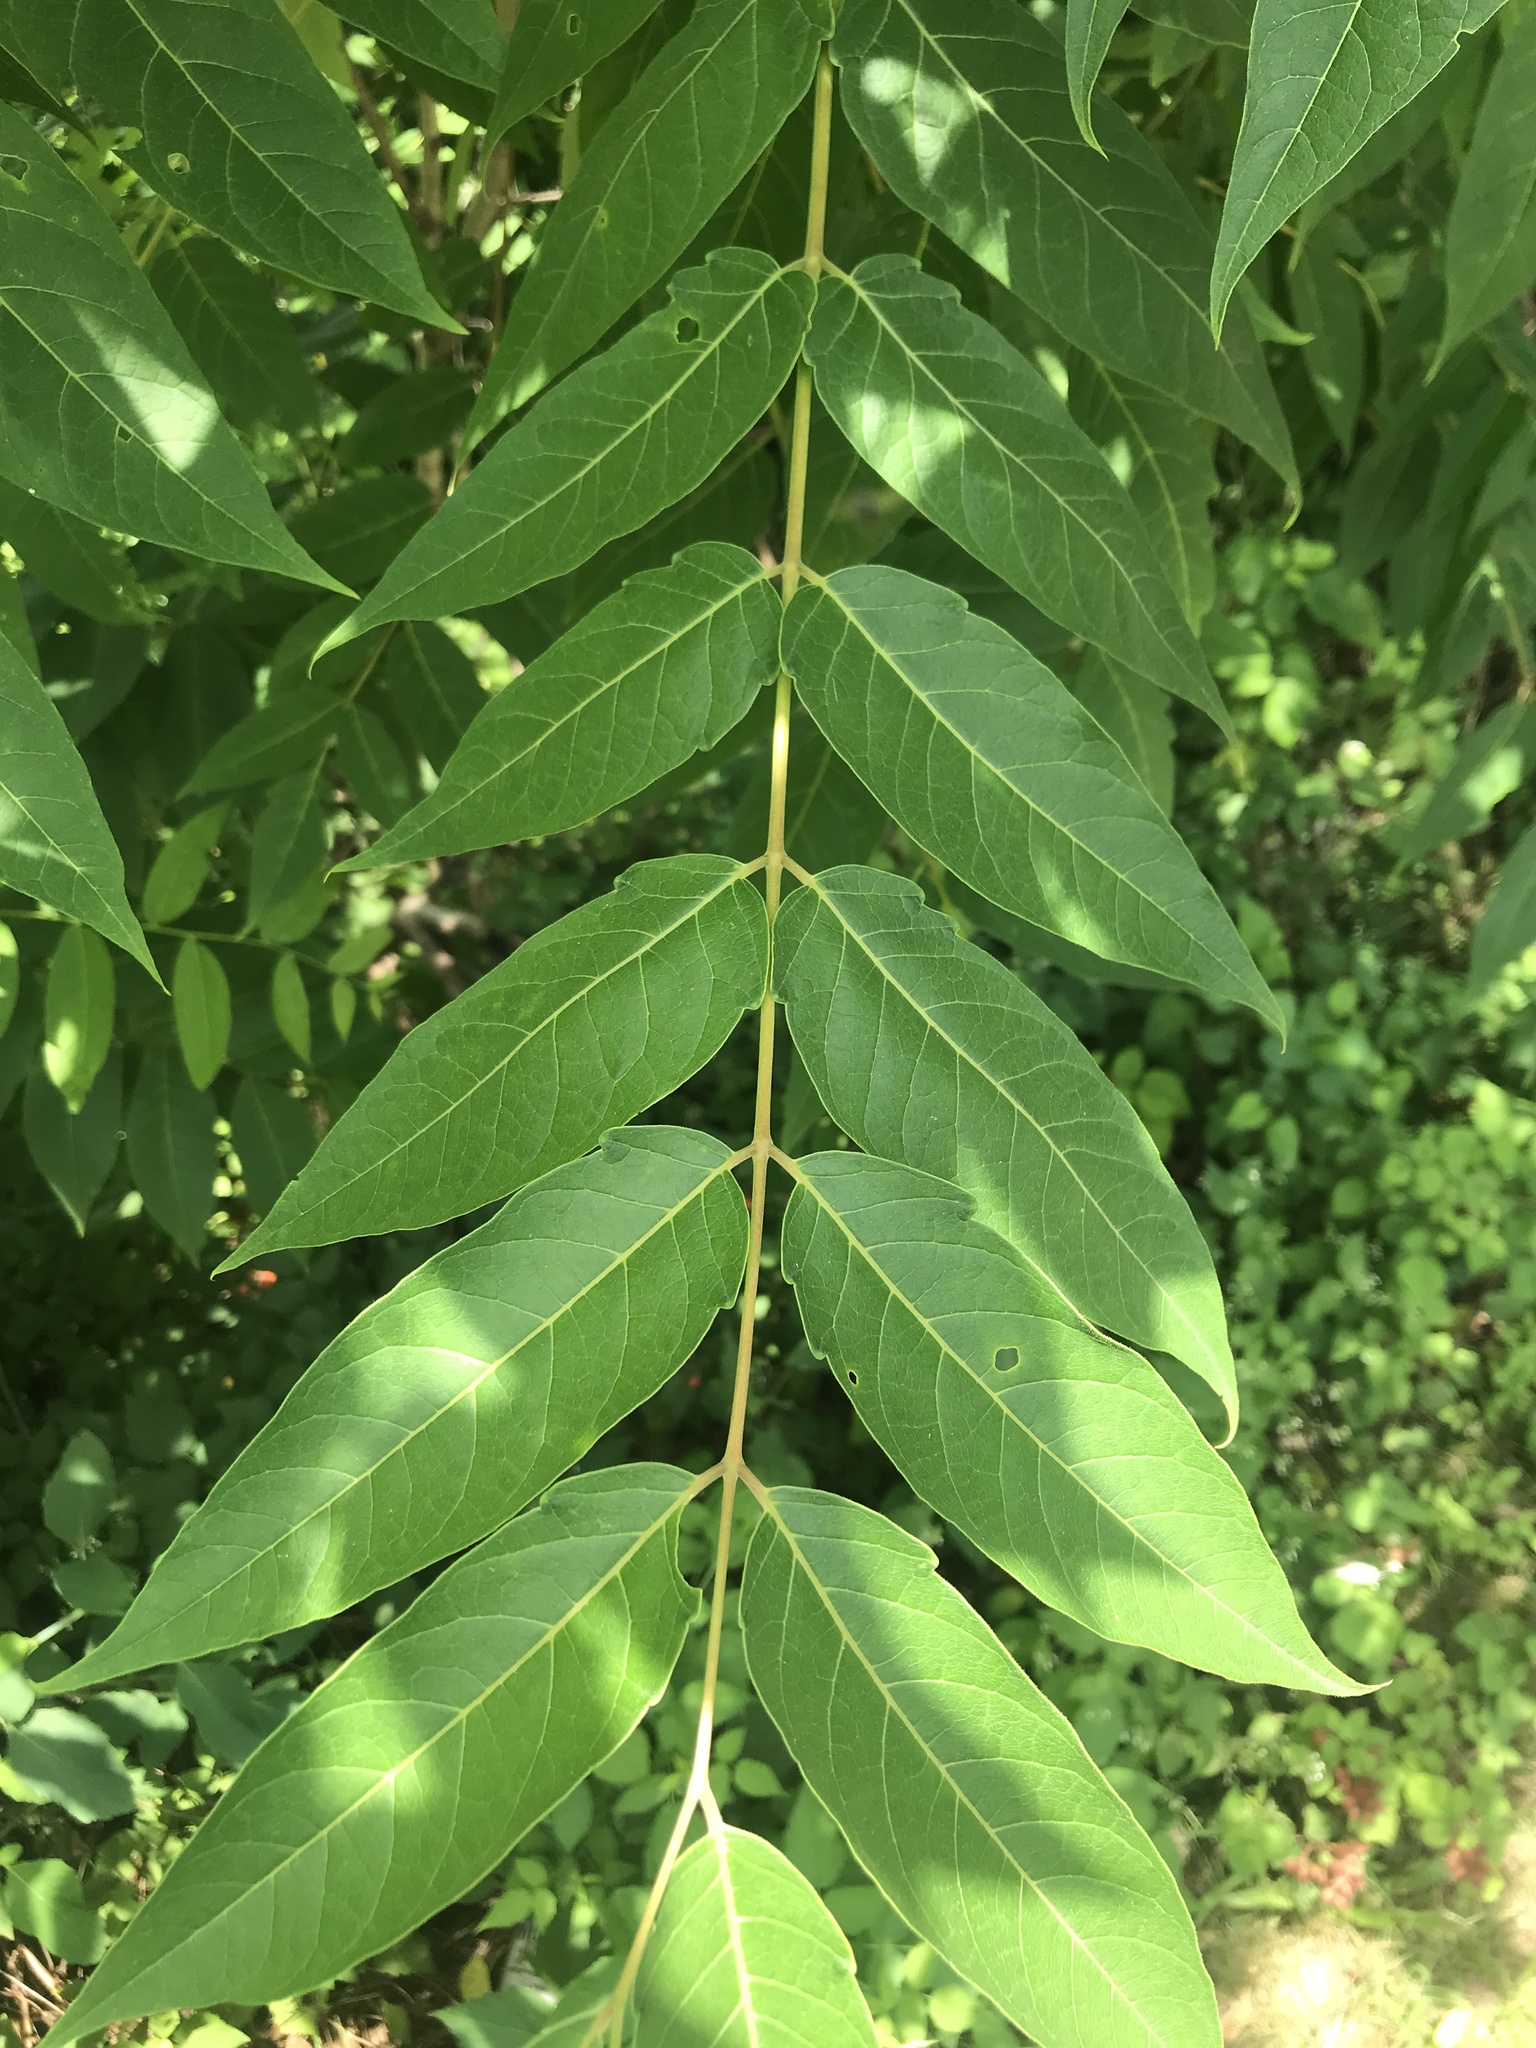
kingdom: Plantae
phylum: Tracheophyta
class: Magnoliopsida
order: Sapindales
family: Simaroubaceae
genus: Ailanthus
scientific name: Ailanthus altissima
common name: Tree-of-heaven
